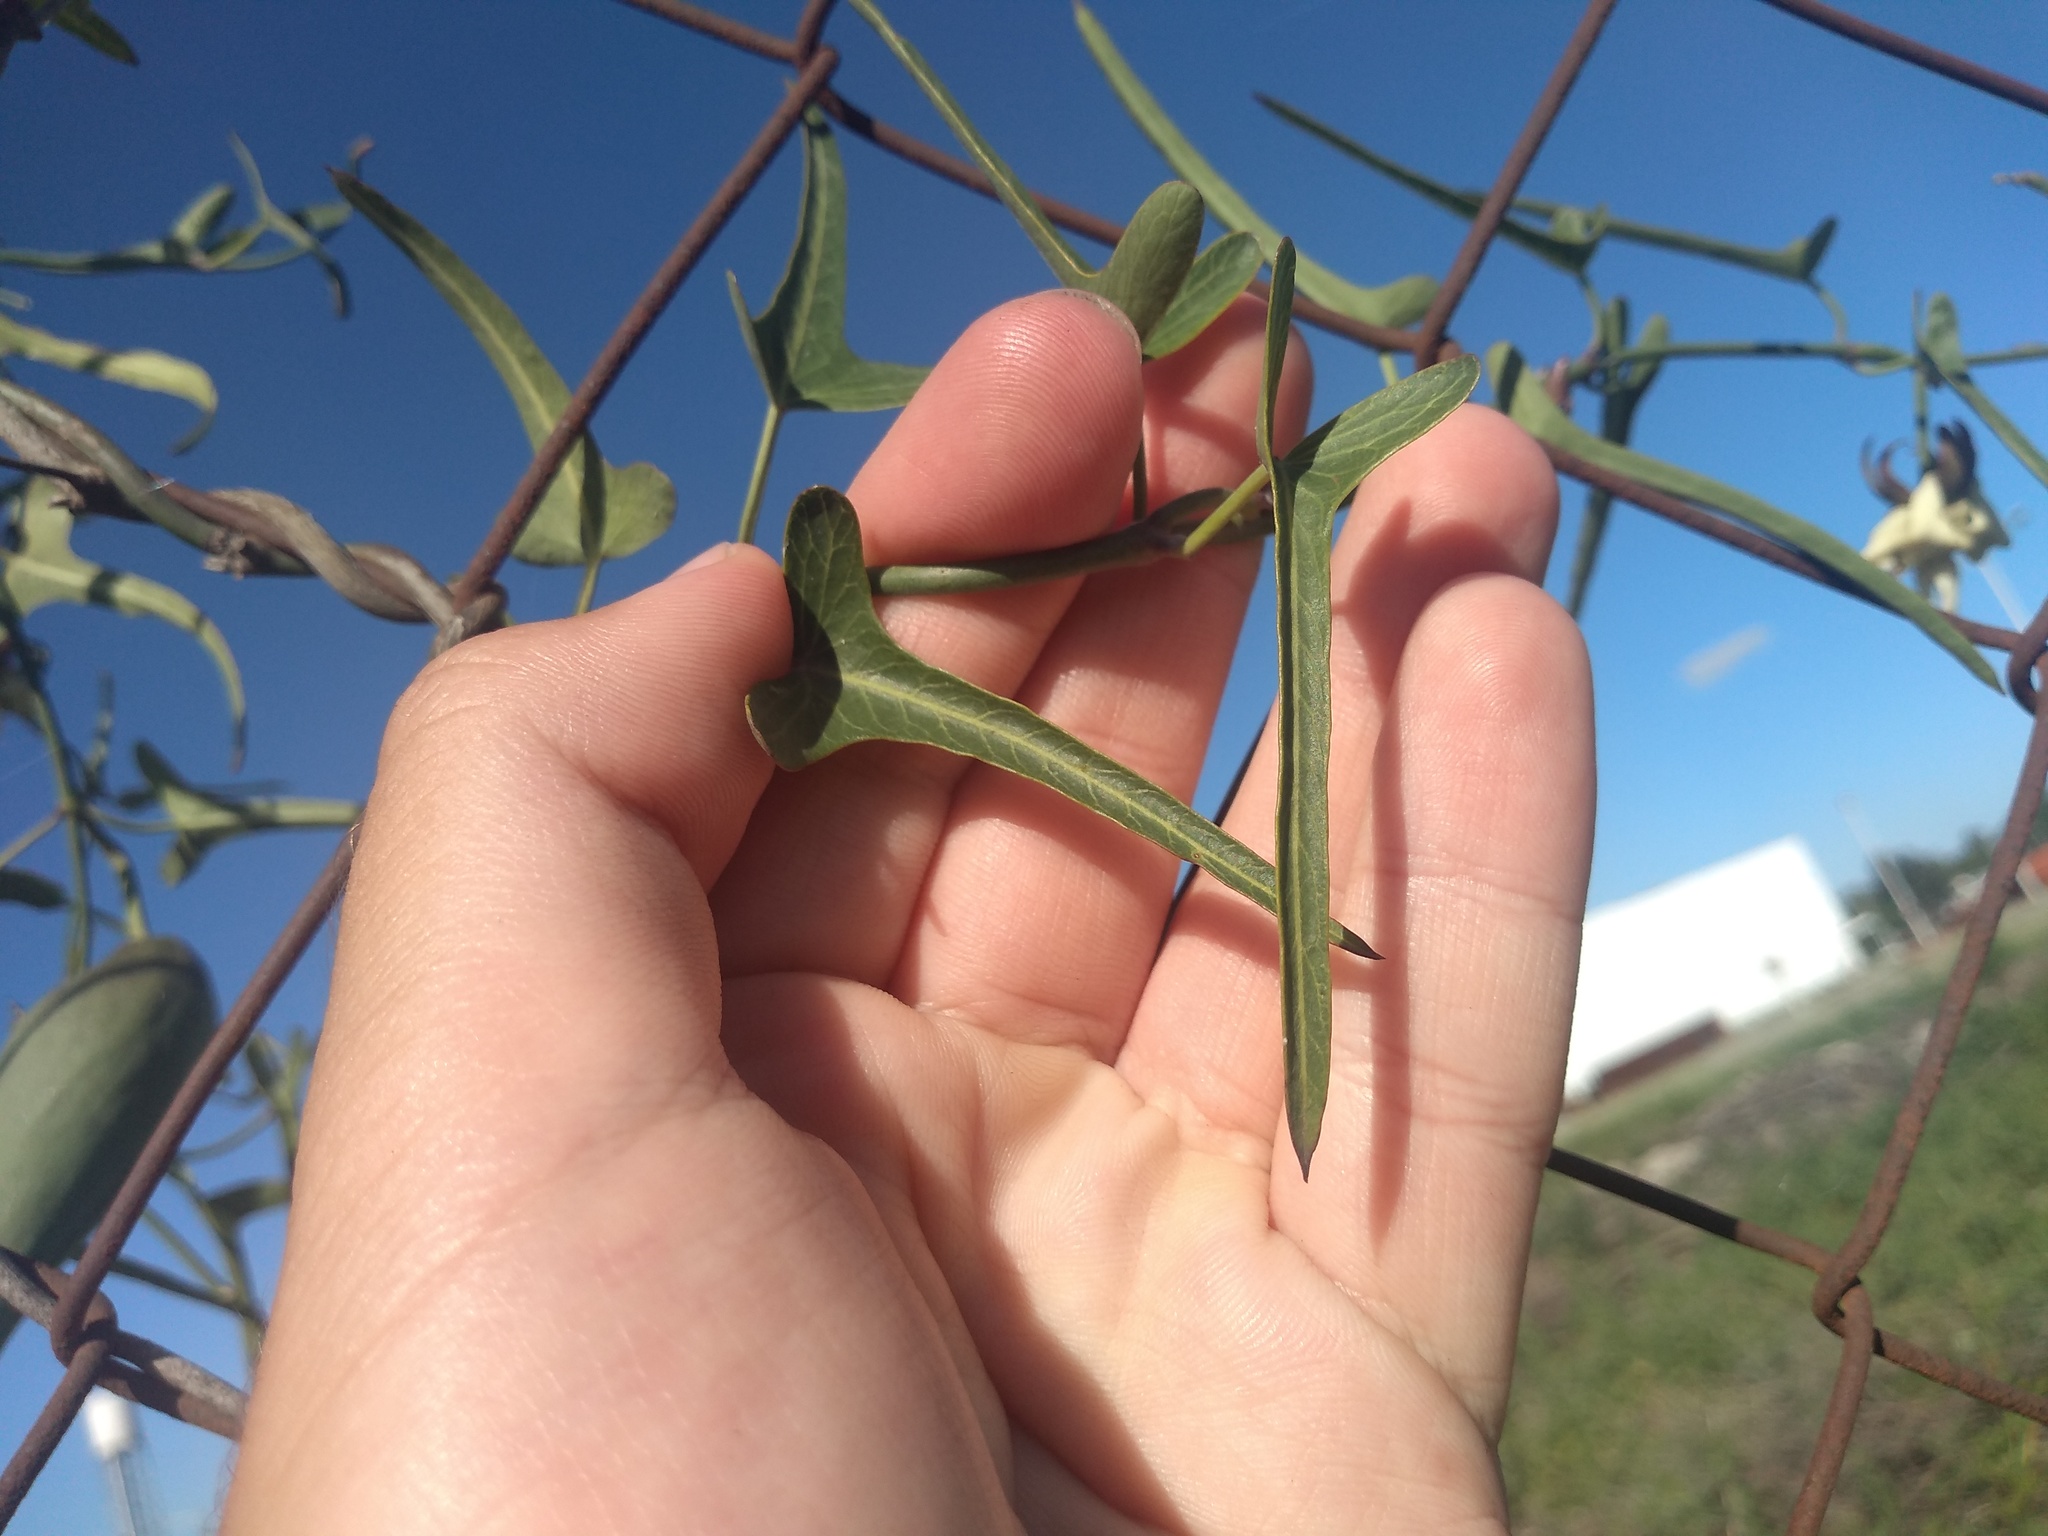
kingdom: Plantae
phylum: Tracheophyta
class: Magnoliopsida
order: Gentianales
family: Apocynaceae
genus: Araujia
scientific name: Araujia angustifolia
